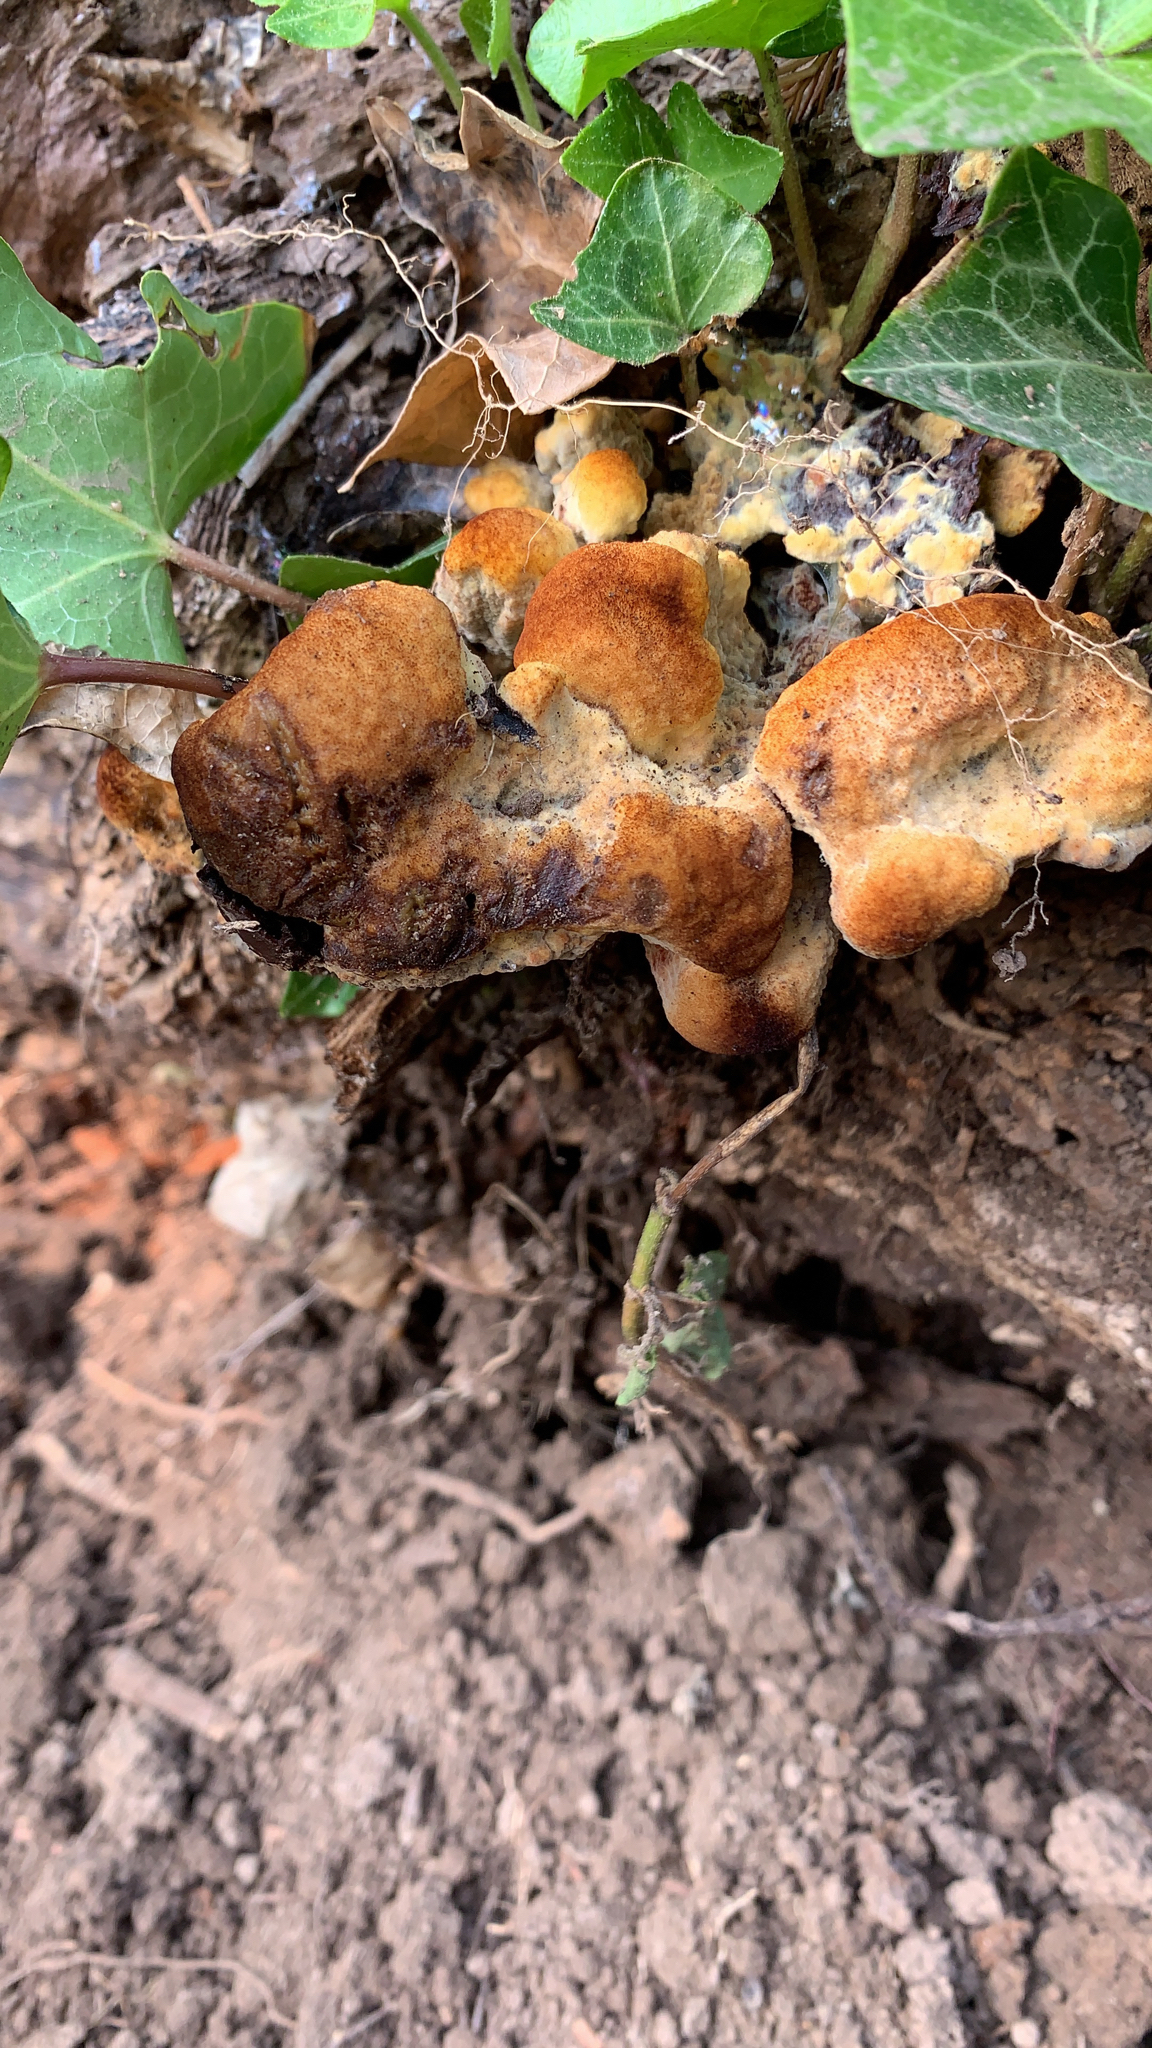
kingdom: Fungi
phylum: Basidiomycota
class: Agaricomycetes
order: Polyporales
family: Laetiporaceae
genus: Phaeolus
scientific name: Phaeolus schweinitzii
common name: Dyer's mazegill
